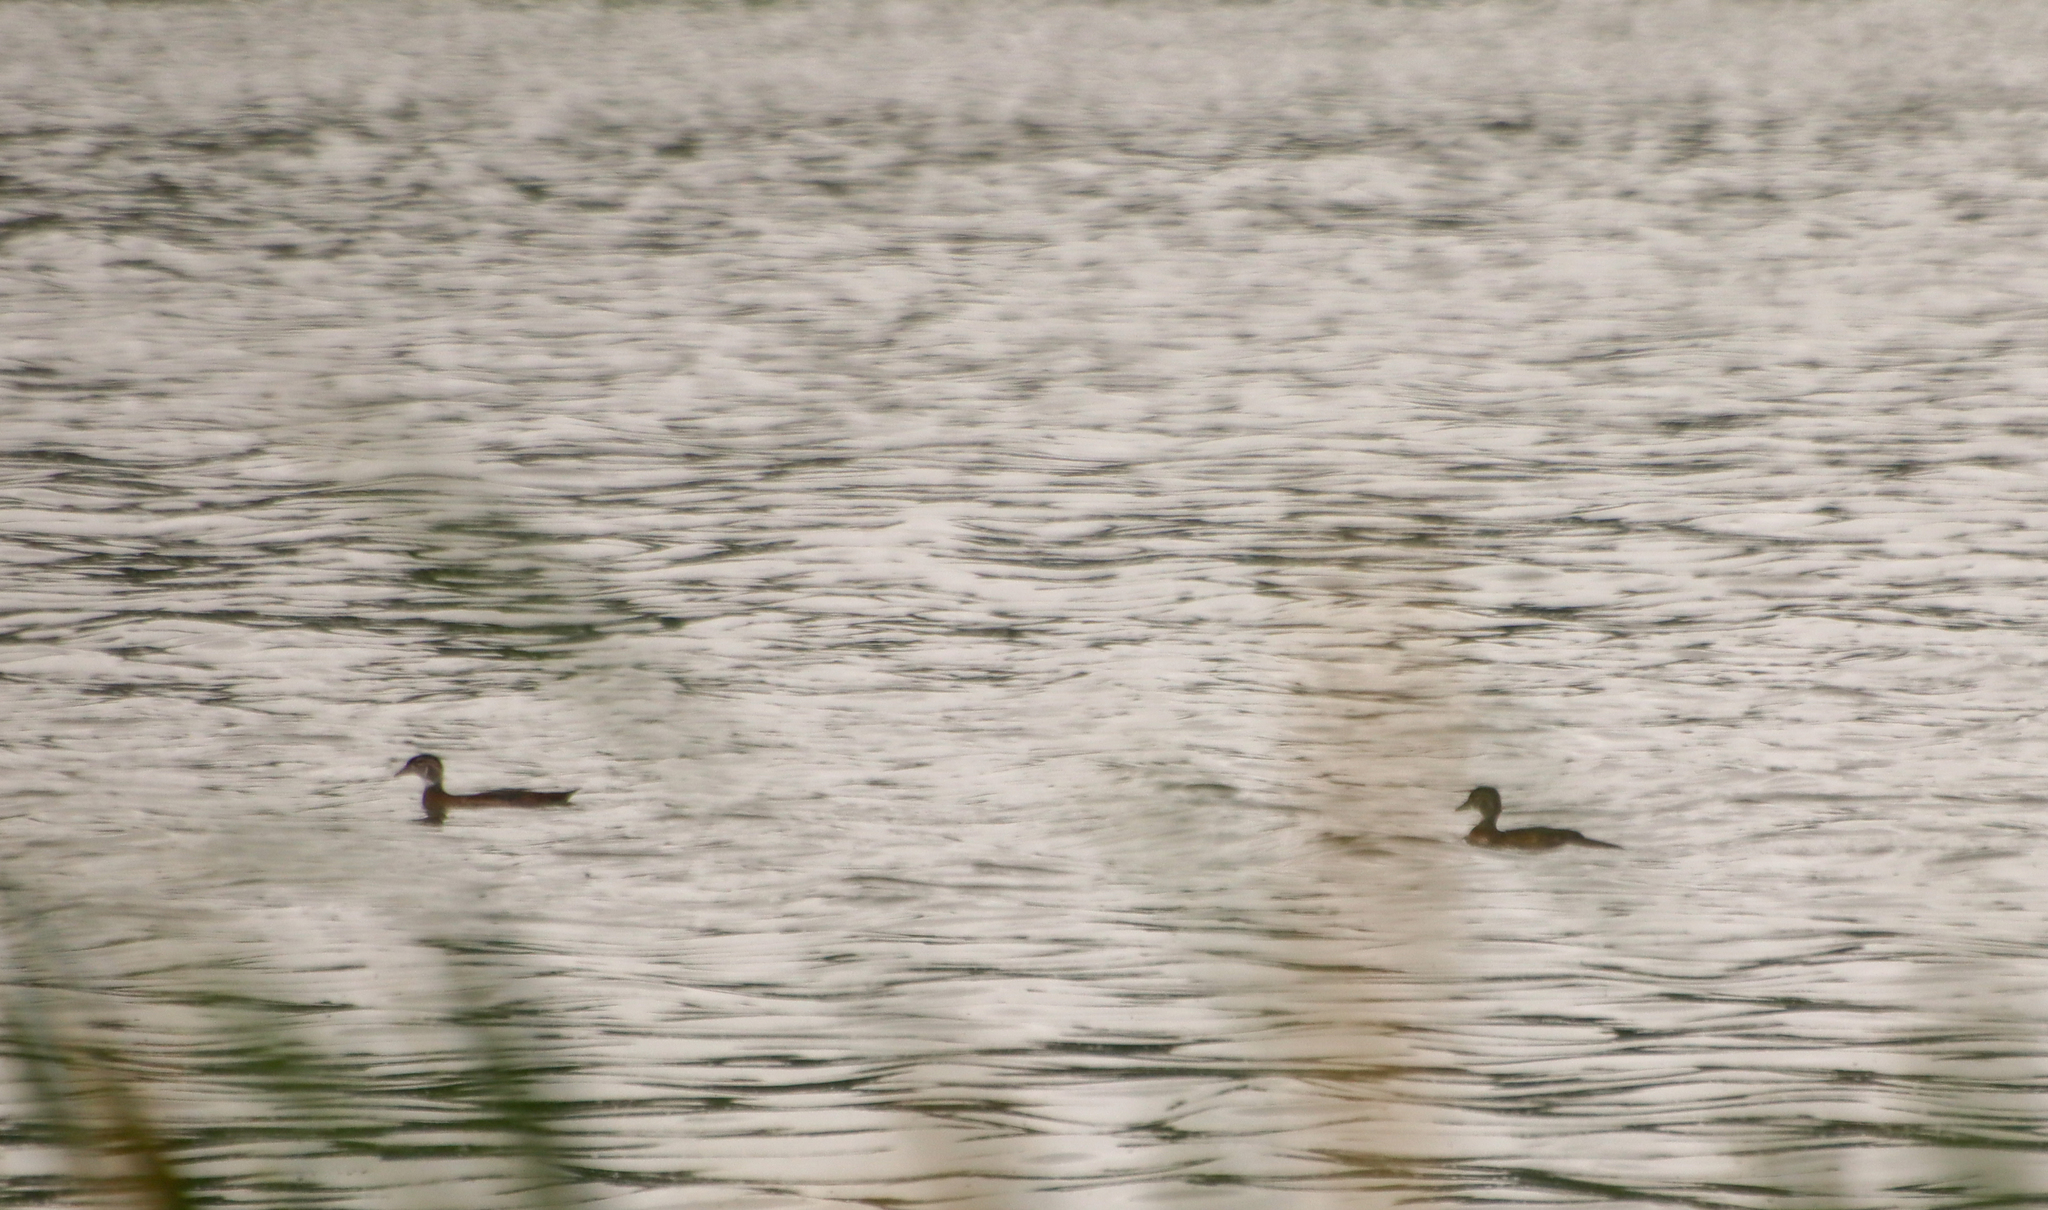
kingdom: Animalia
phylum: Chordata
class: Aves
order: Anseriformes
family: Anatidae
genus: Aix
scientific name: Aix sponsa
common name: Wood duck
